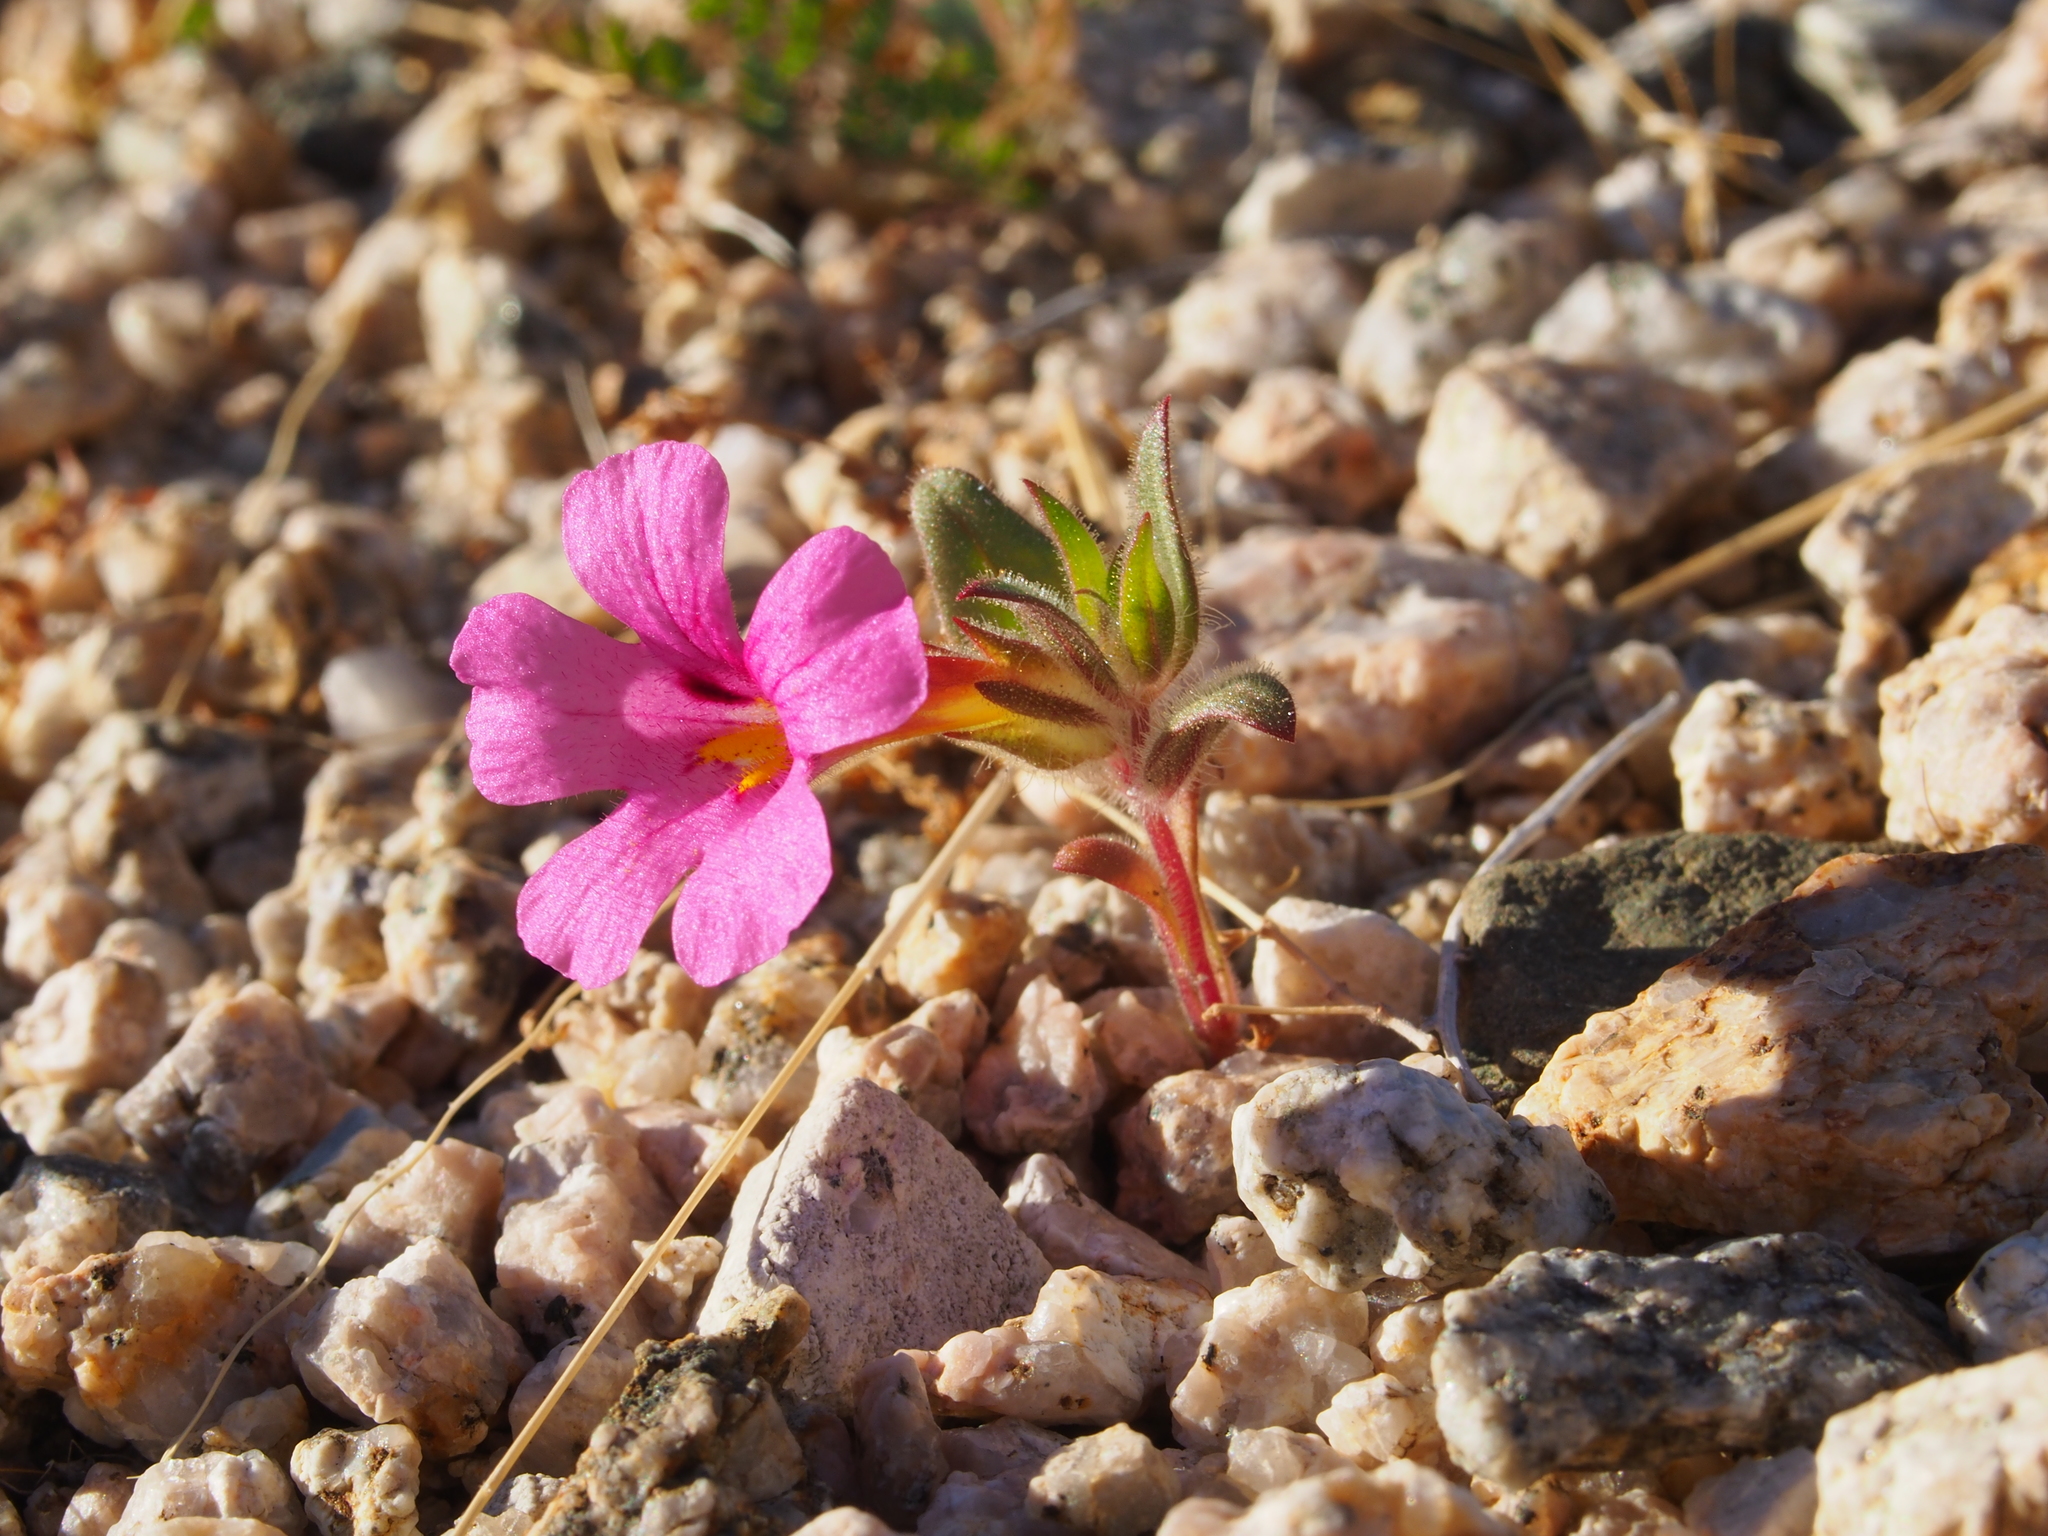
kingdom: Plantae
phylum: Tracheophyta
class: Magnoliopsida
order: Lamiales
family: Phrymaceae
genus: Diplacus
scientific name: Diplacus bigelovii
